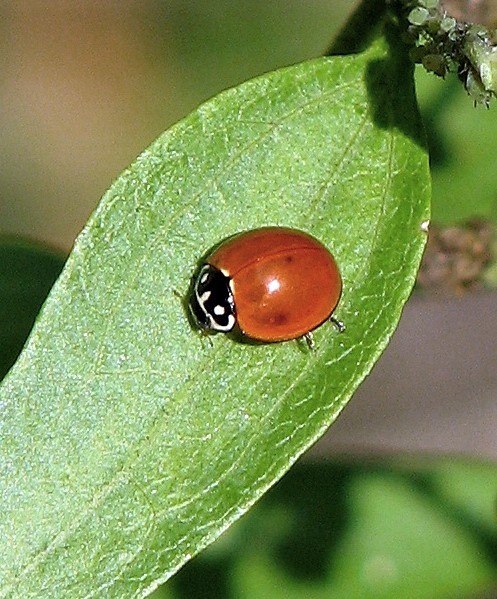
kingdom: Animalia
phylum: Arthropoda
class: Insecta
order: Coleoptera
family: Coccinellidae
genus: Cycloneda
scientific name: Cycloneda sanguinea
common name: Ladybird beetle
